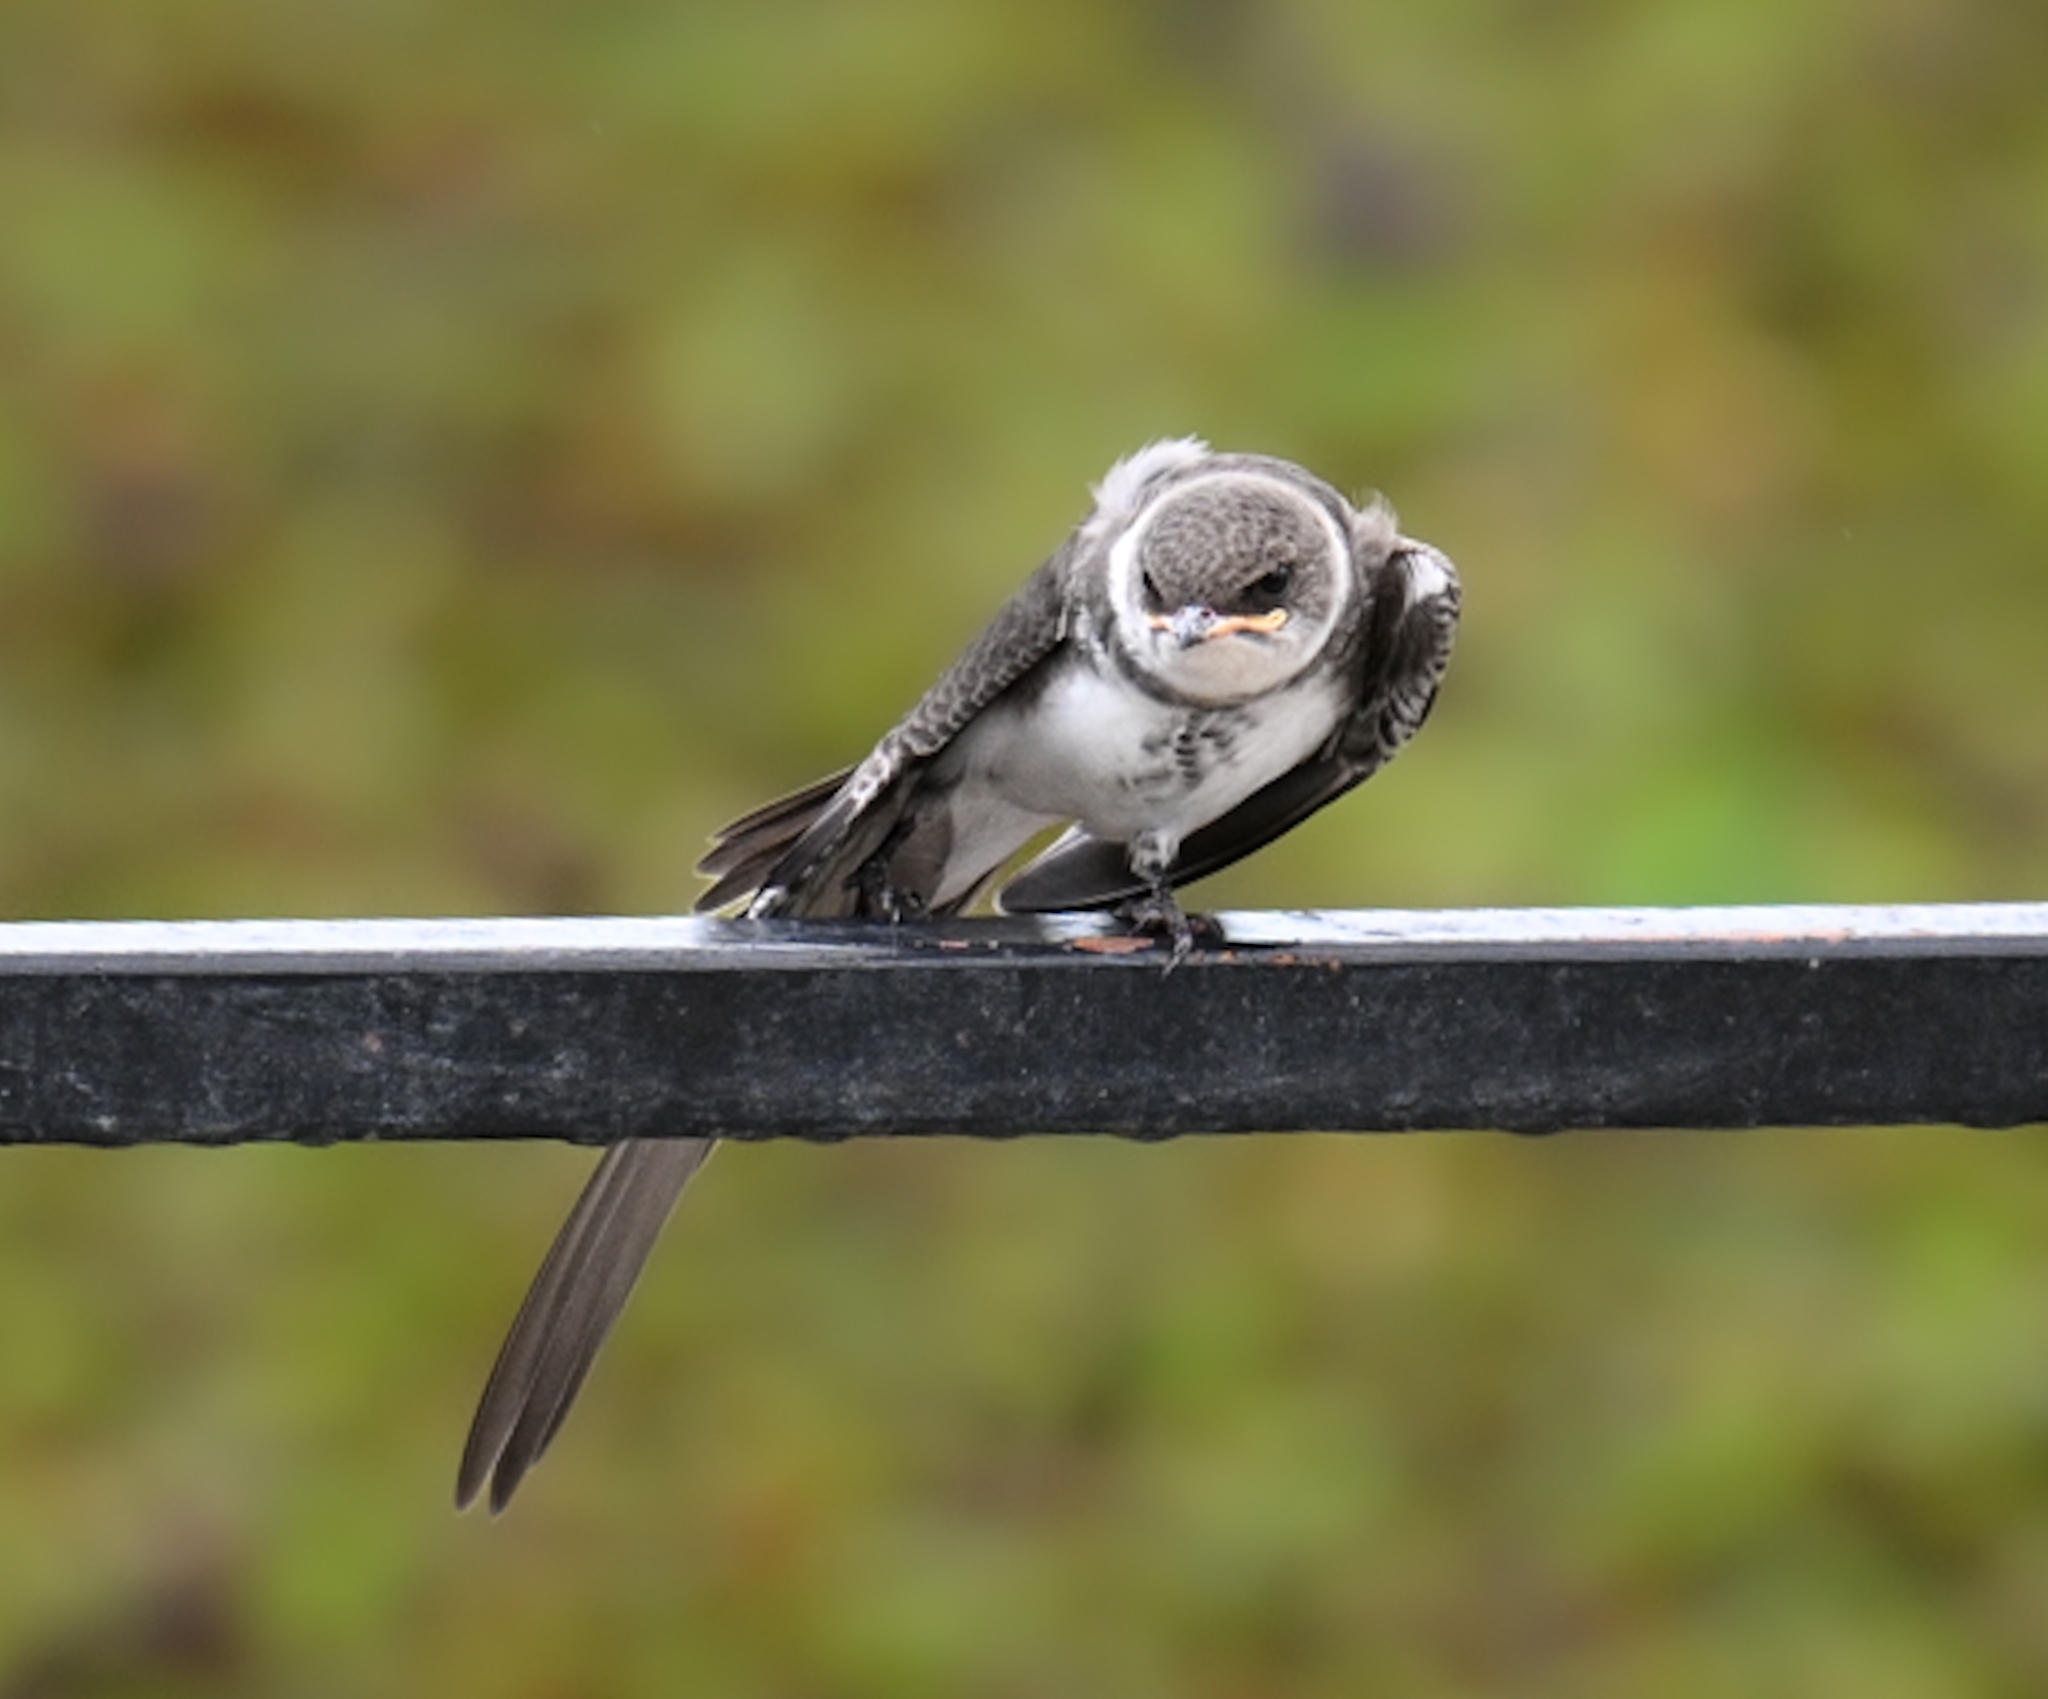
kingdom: Animalia
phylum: Chordata
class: Aves
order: Passeriformes
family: Hirundinidae
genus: Progne
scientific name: Progne tapera
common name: Brown-chested martin
